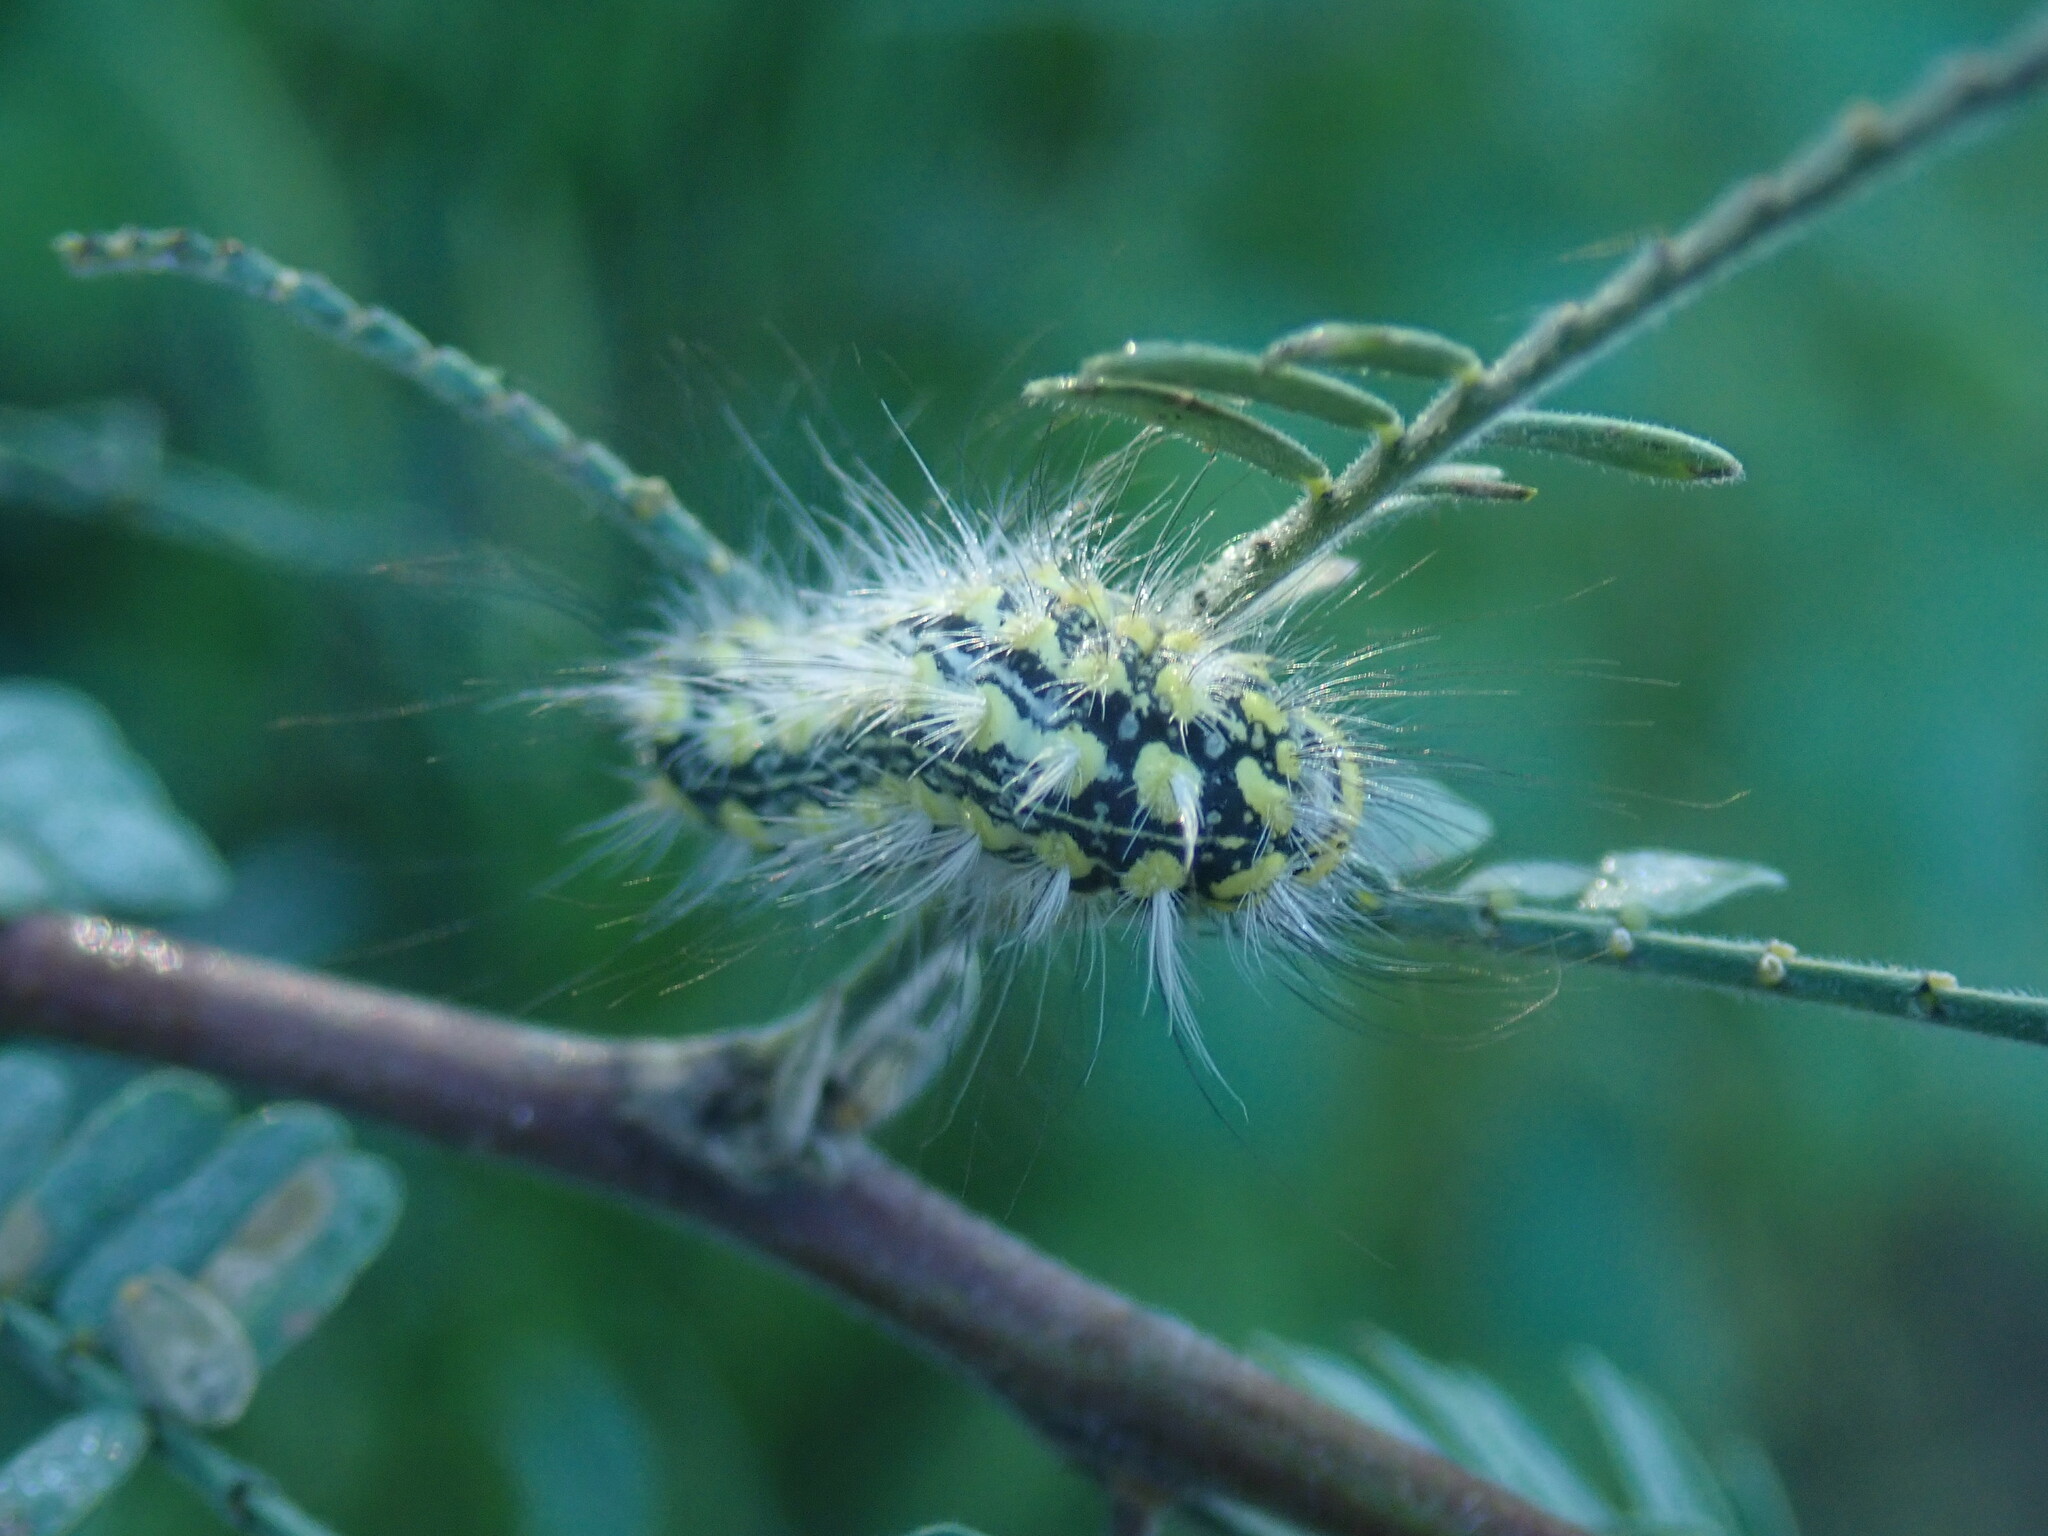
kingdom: Animalia
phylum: Arthropoda
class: Insecta
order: Lepidoptera
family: Megalopygidae
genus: Norape
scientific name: Norape tener
